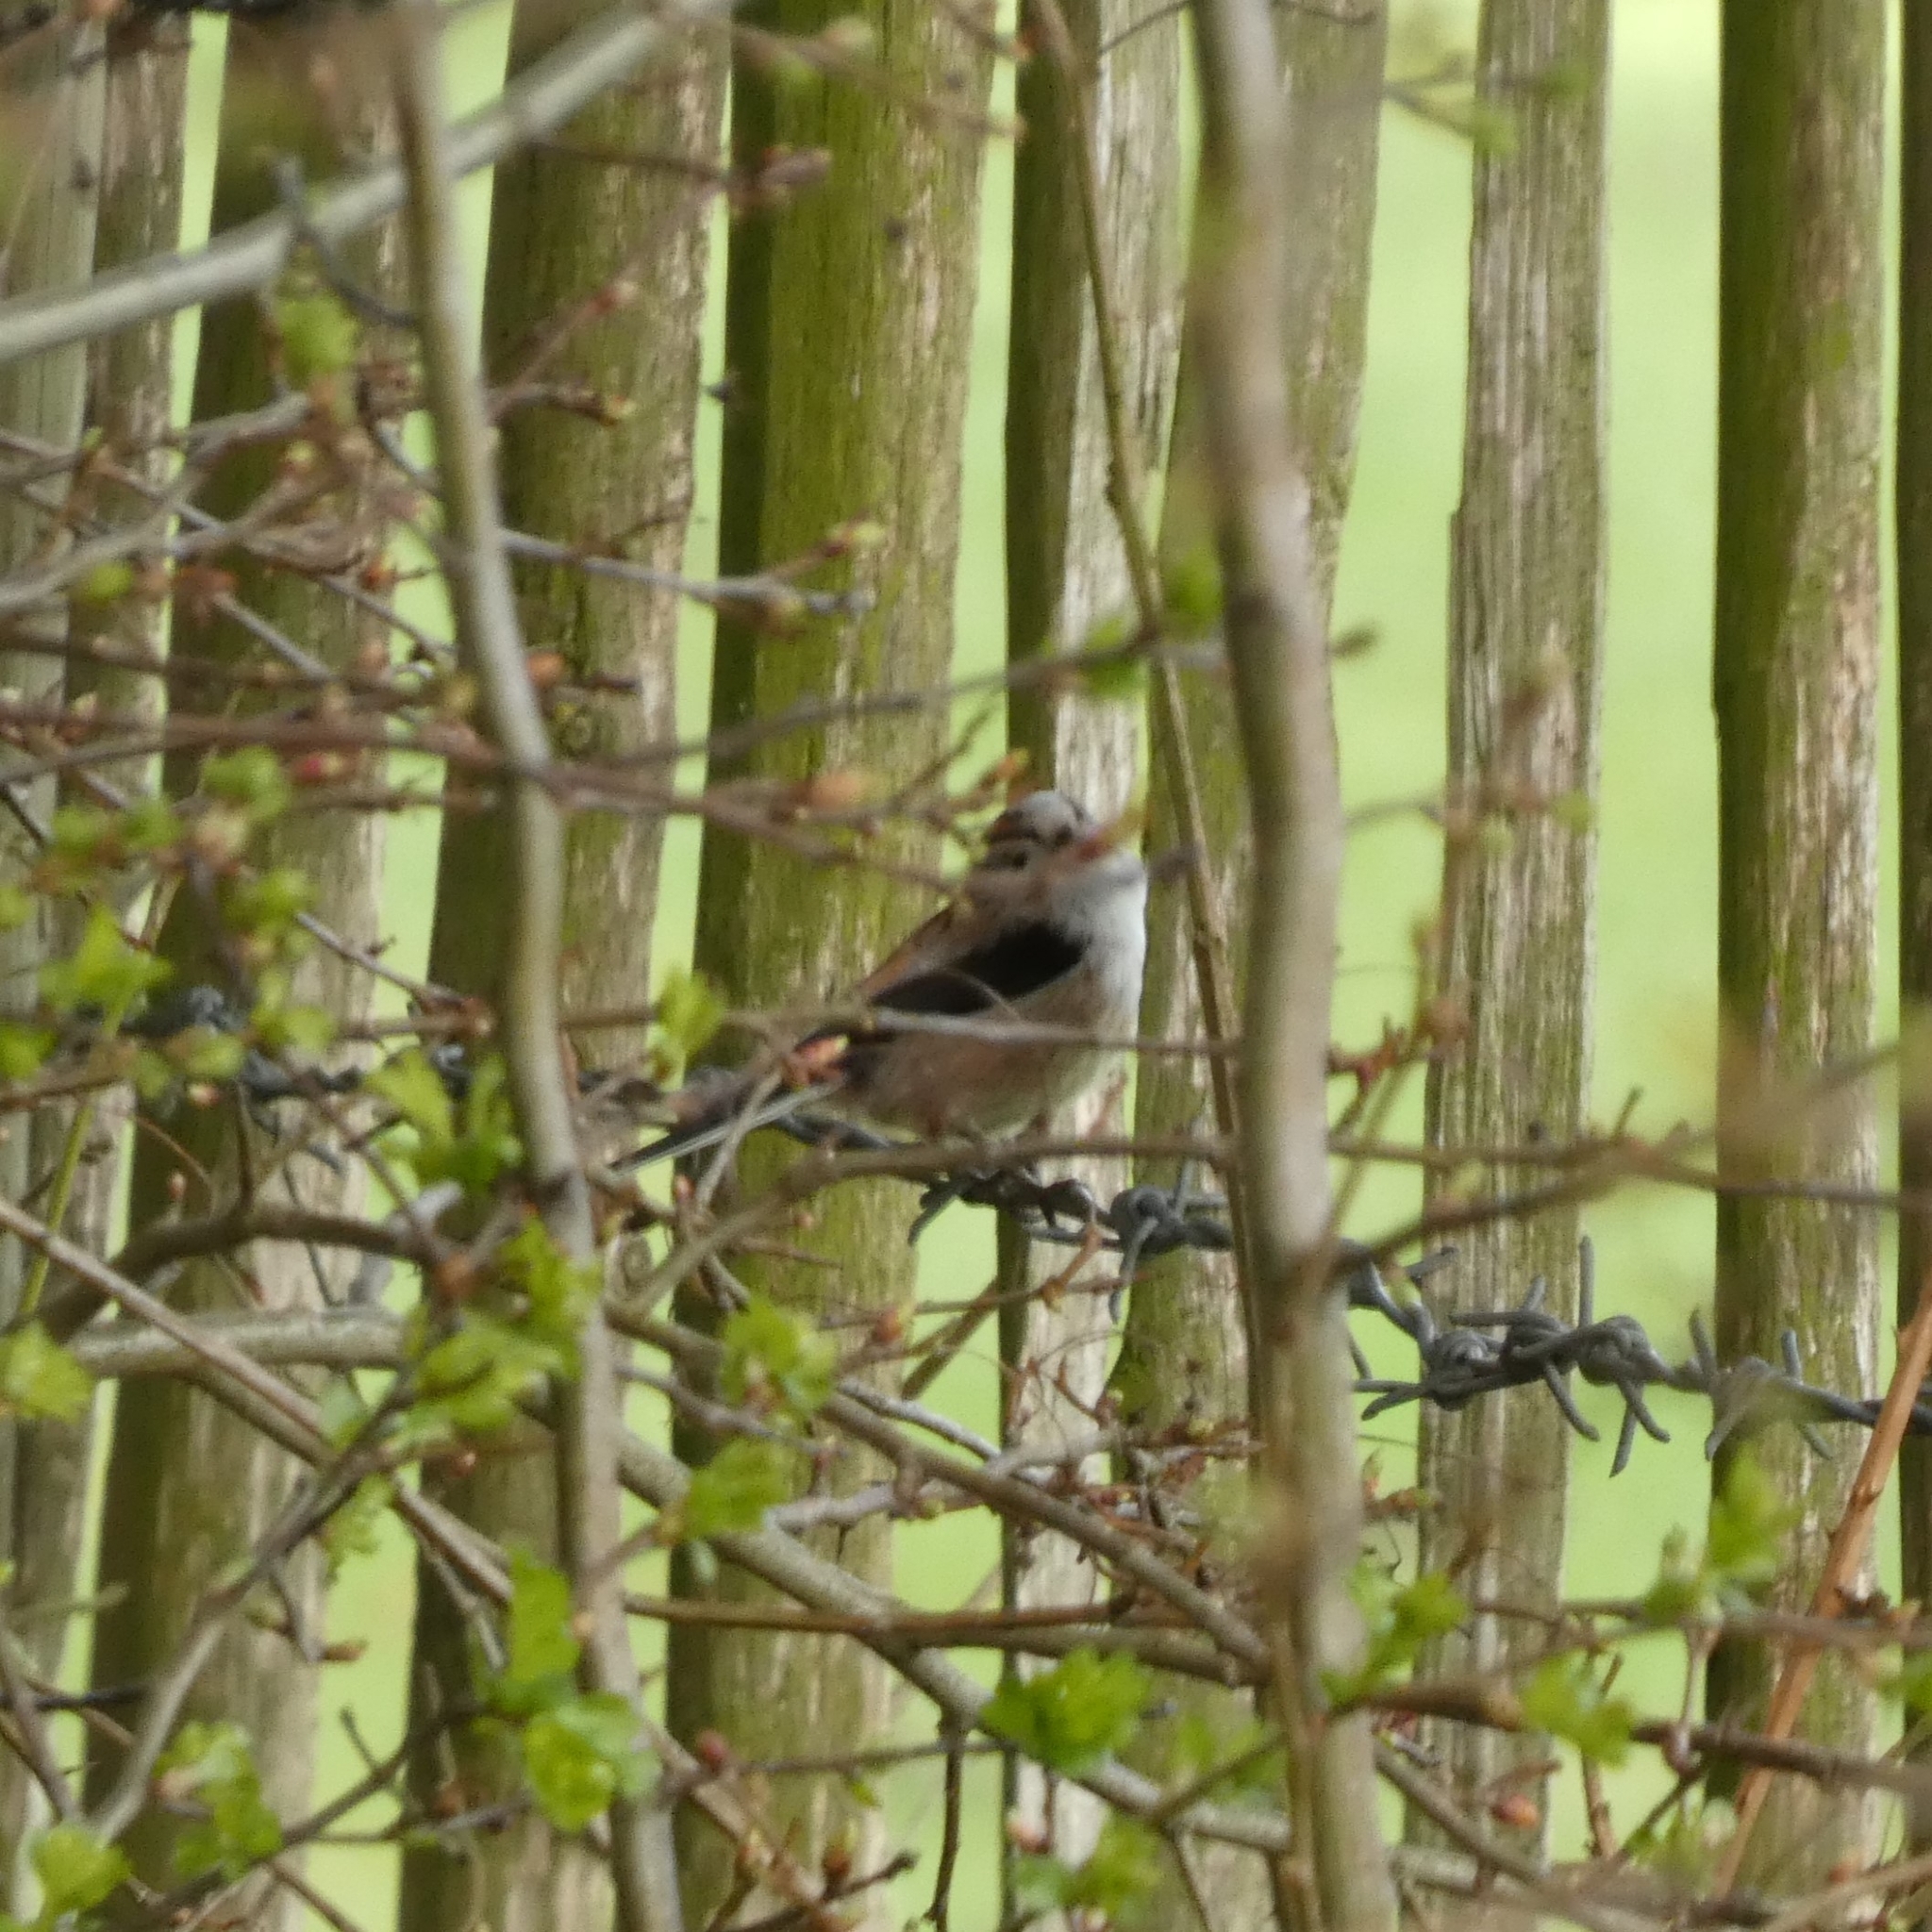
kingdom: Animalia
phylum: Chordata
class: Aves
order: Passeriformes
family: Aegithalidae
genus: Aegithalos
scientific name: Aegithalos caudatus
